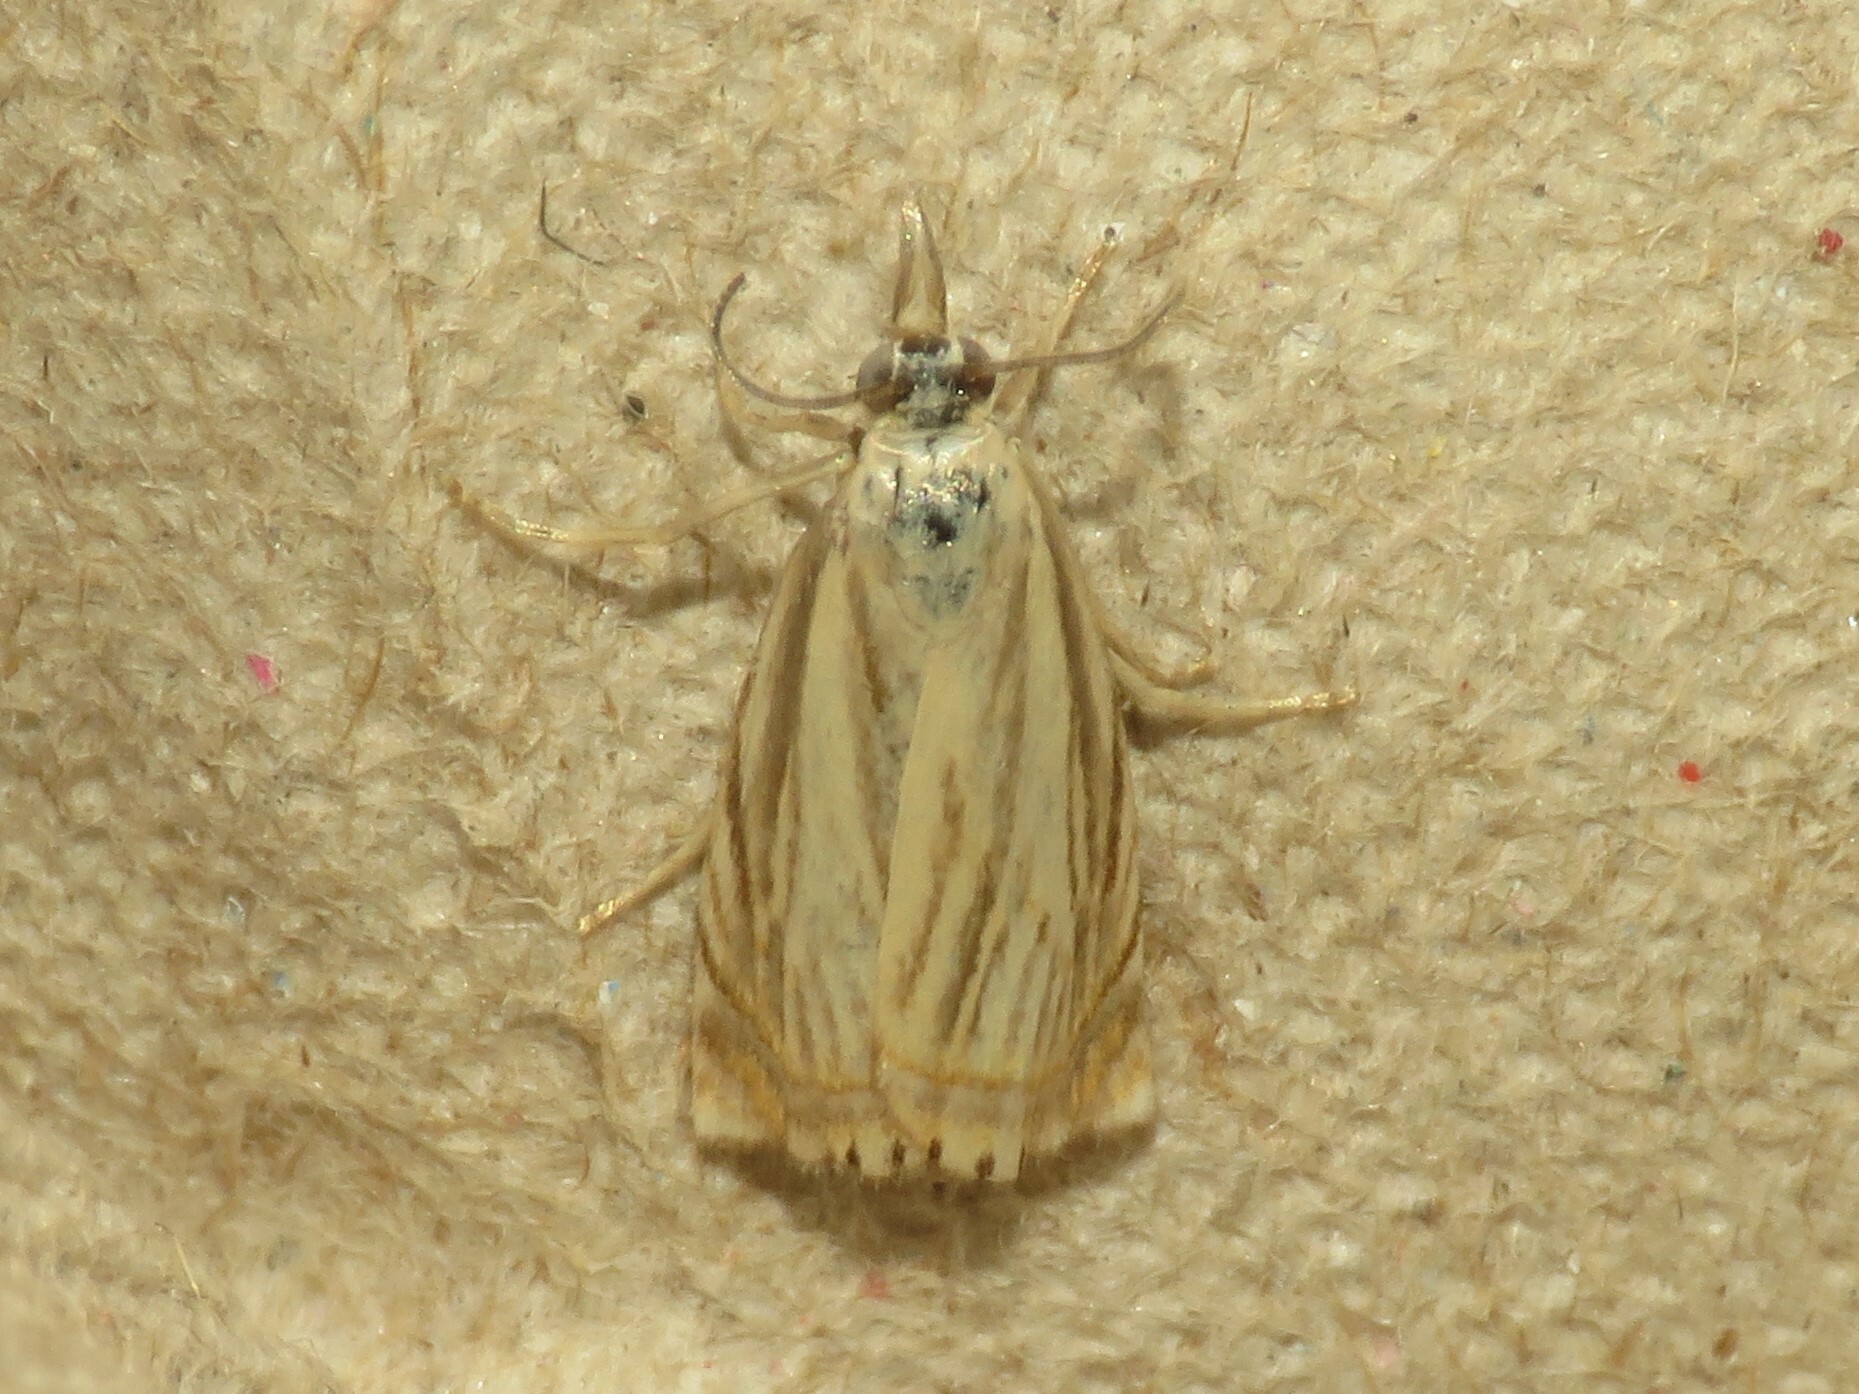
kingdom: Animalia
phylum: Arthropoda
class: Insecta
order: Lepidoptera
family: Crambidae
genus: Chrysoteuchia
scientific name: Chrysoteuchia topiarius
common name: Topiary grass-veneer
